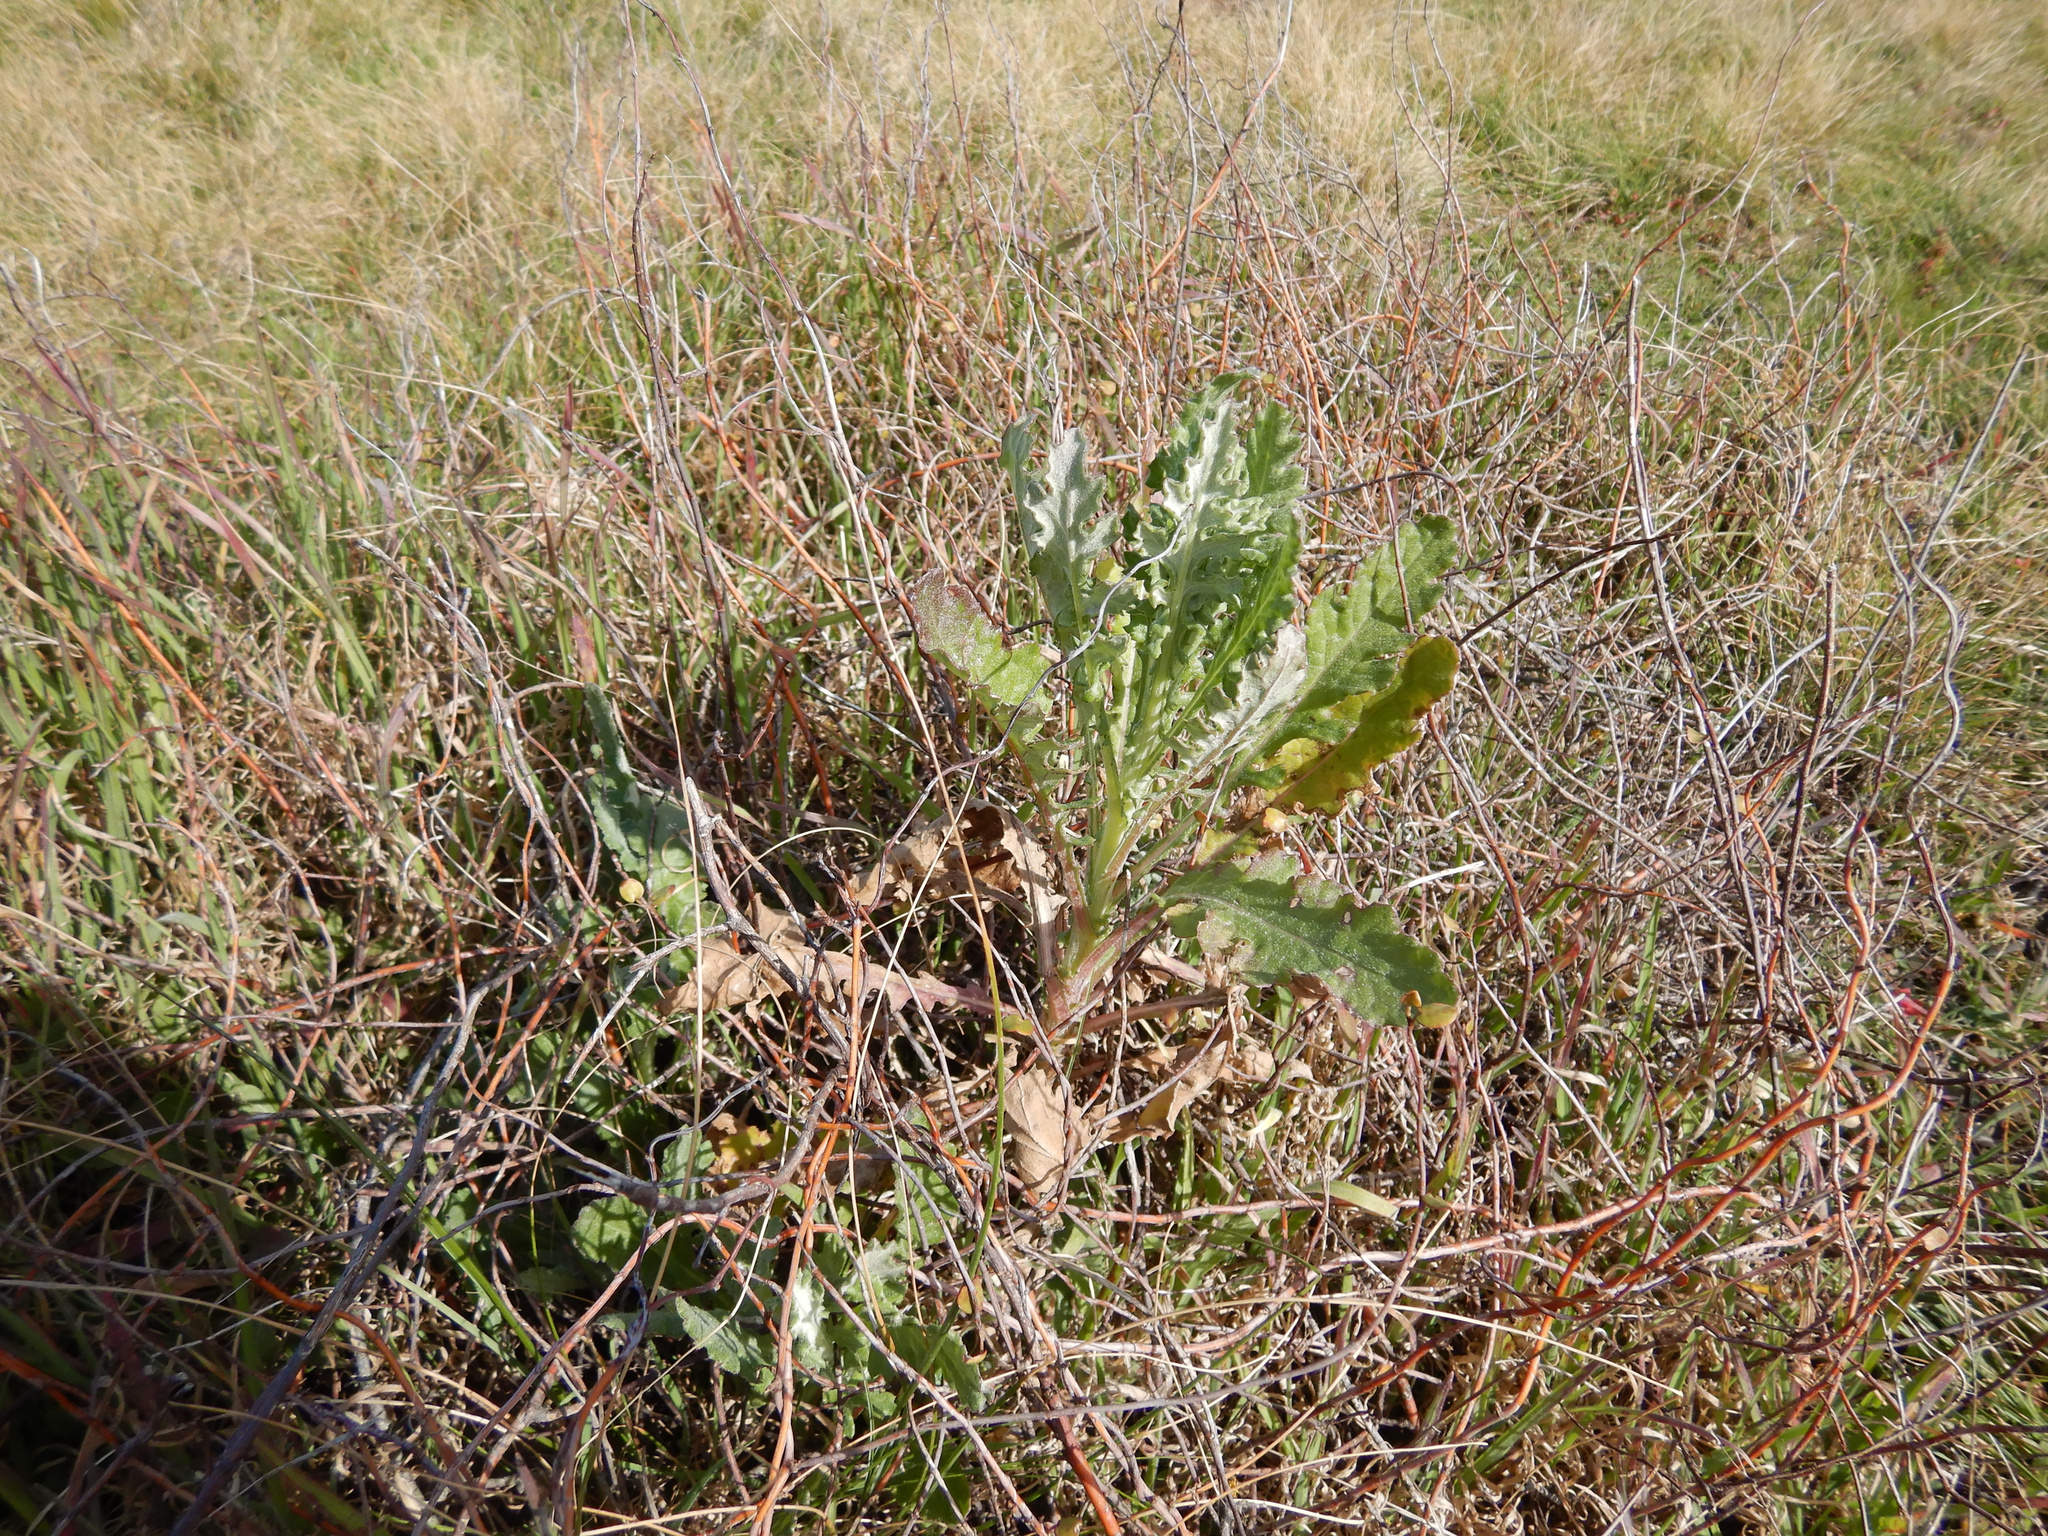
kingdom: Plantae
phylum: Tracheophyta
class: Magnoliopsida
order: Asterales
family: Asteraceae
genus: Senecio
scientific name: Senecio glomeratus
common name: Cutleaf burnweed
